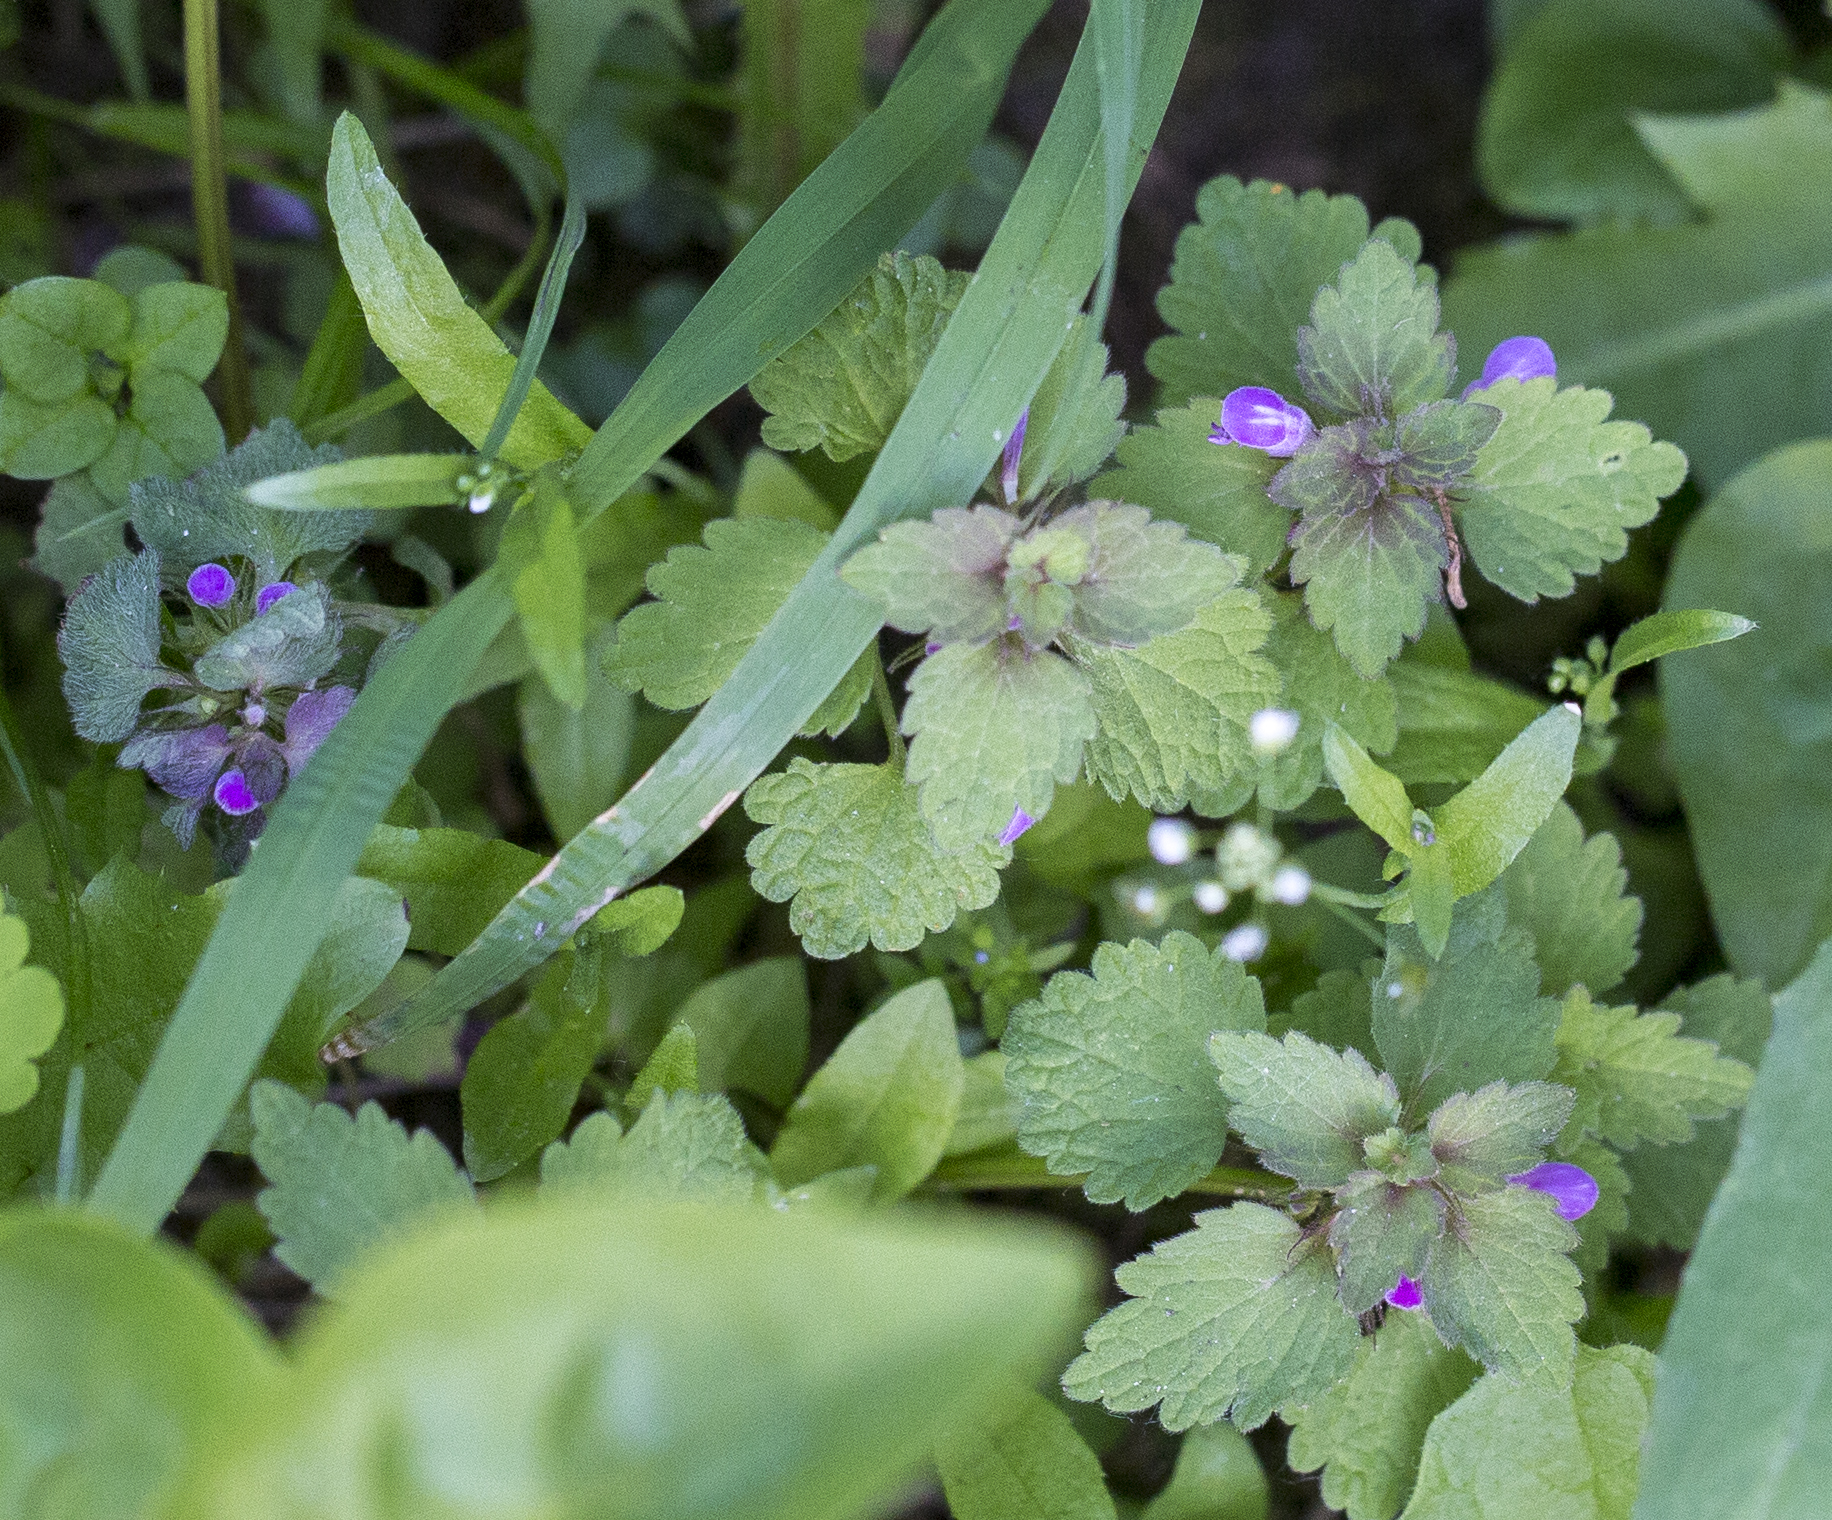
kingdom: Plantae
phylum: Tracheophyta
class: Magnoliopsida
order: Lamiales
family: Lamiaceae
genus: Lamium
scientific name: Lamium purpureum
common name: Red dead-nettle
